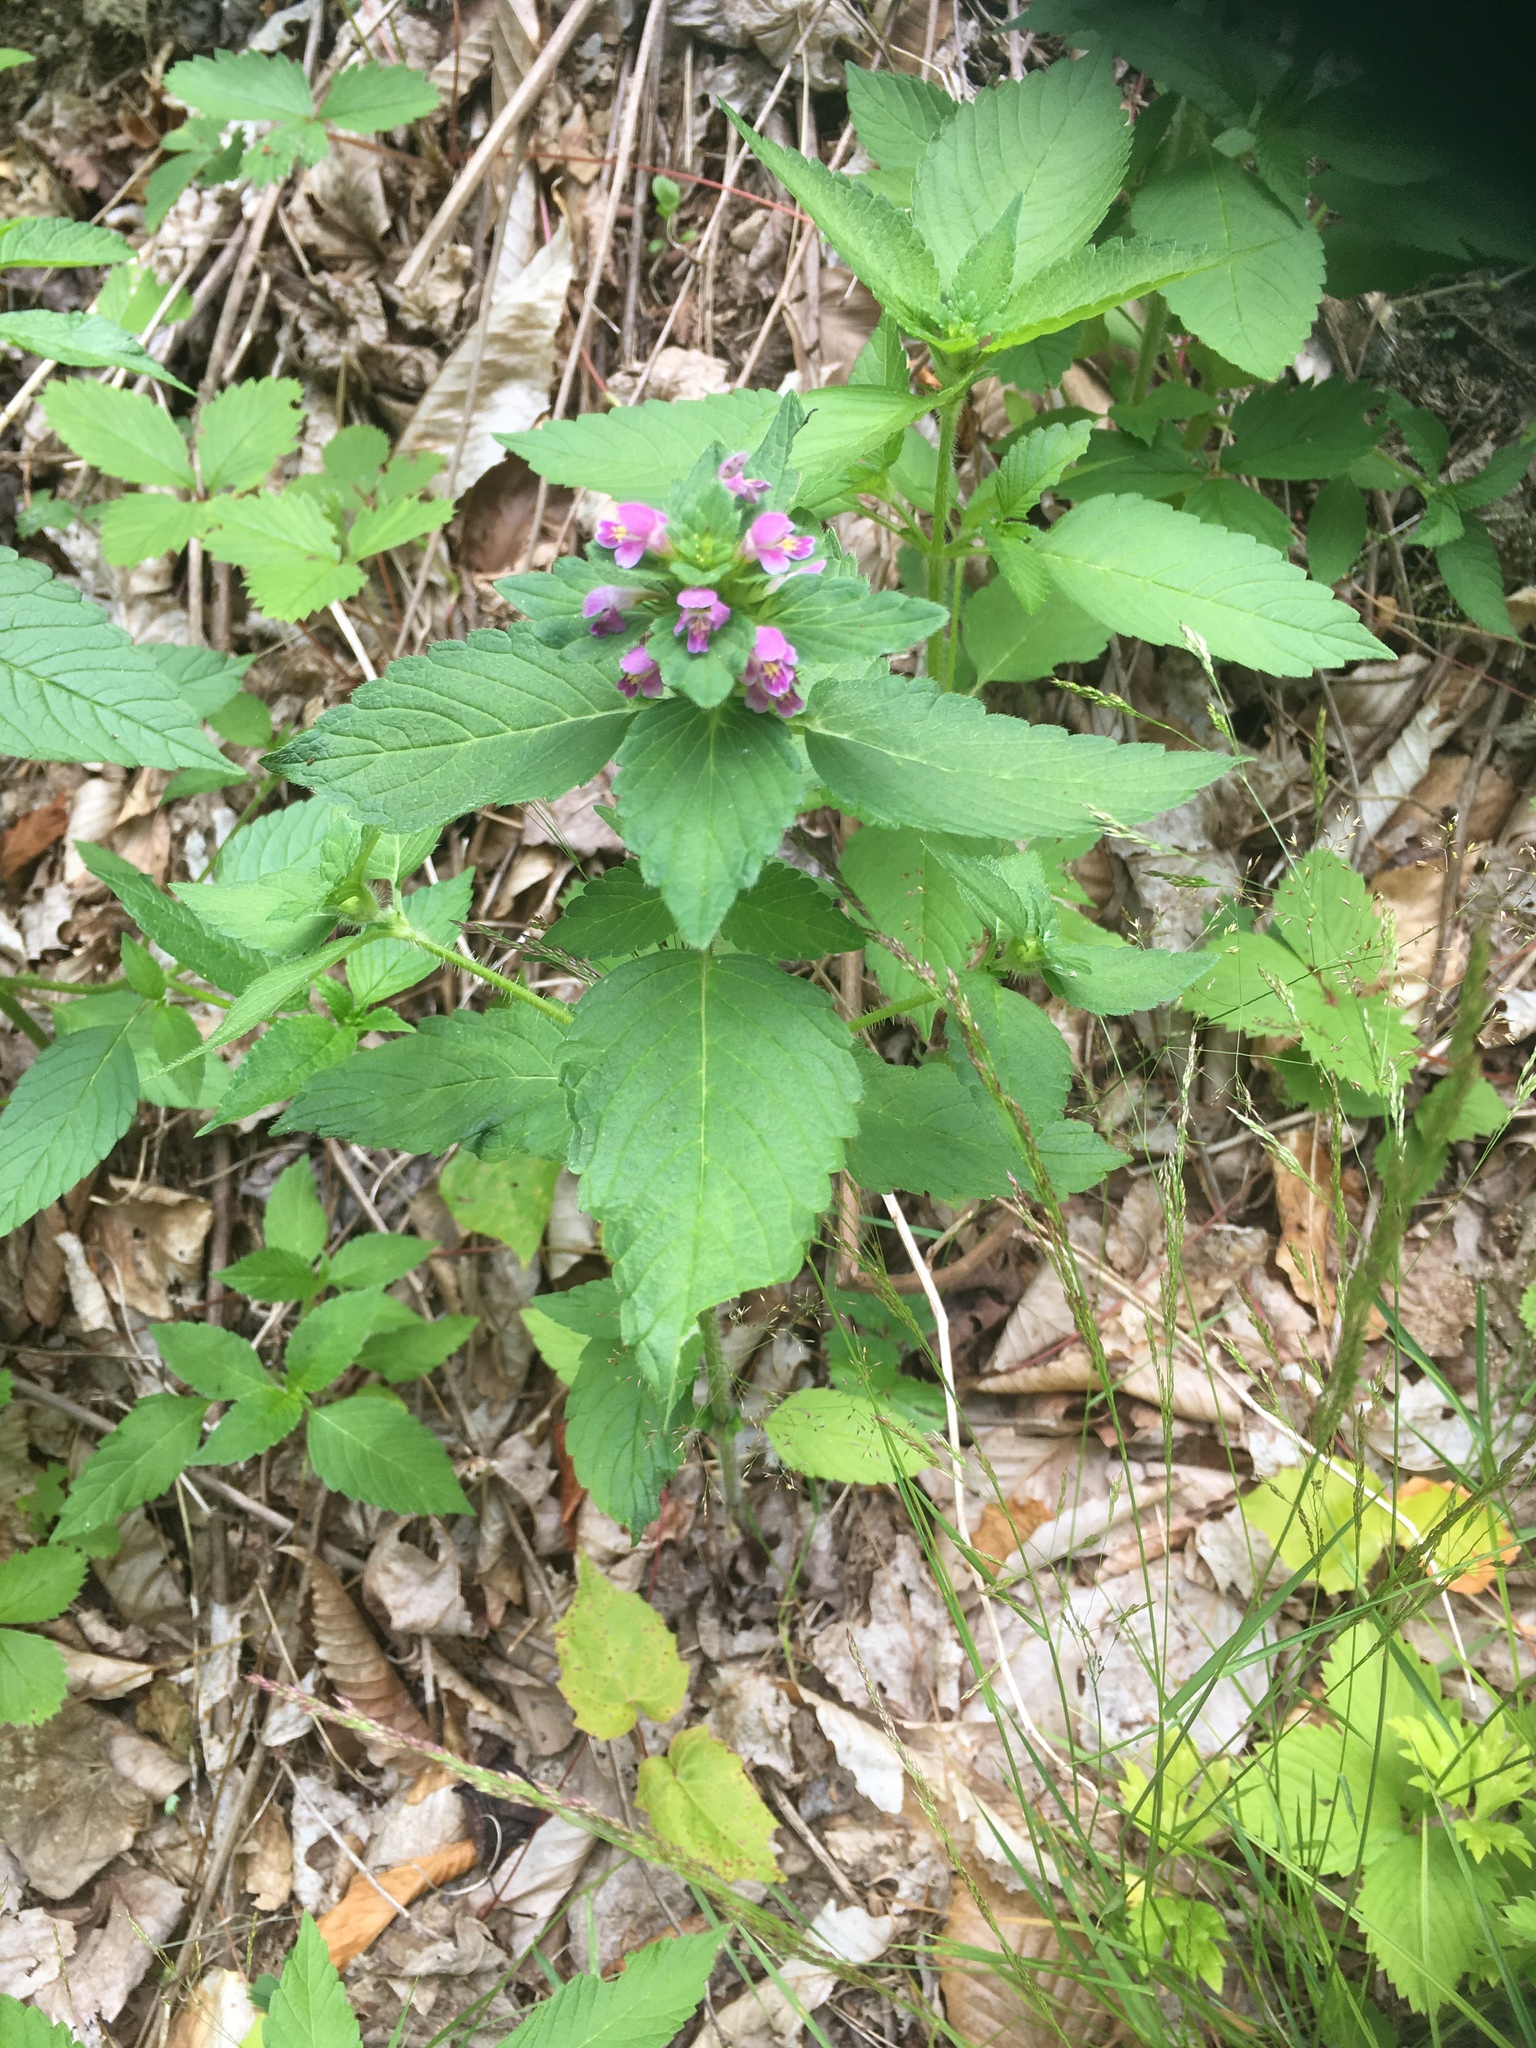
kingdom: Plantae
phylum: Tracheophyta
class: Magnoliopsida
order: Lamiales
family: Lamiaceae
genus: Galeopsis
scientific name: Galeopsis bifida
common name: Bifid hemp-nettle
